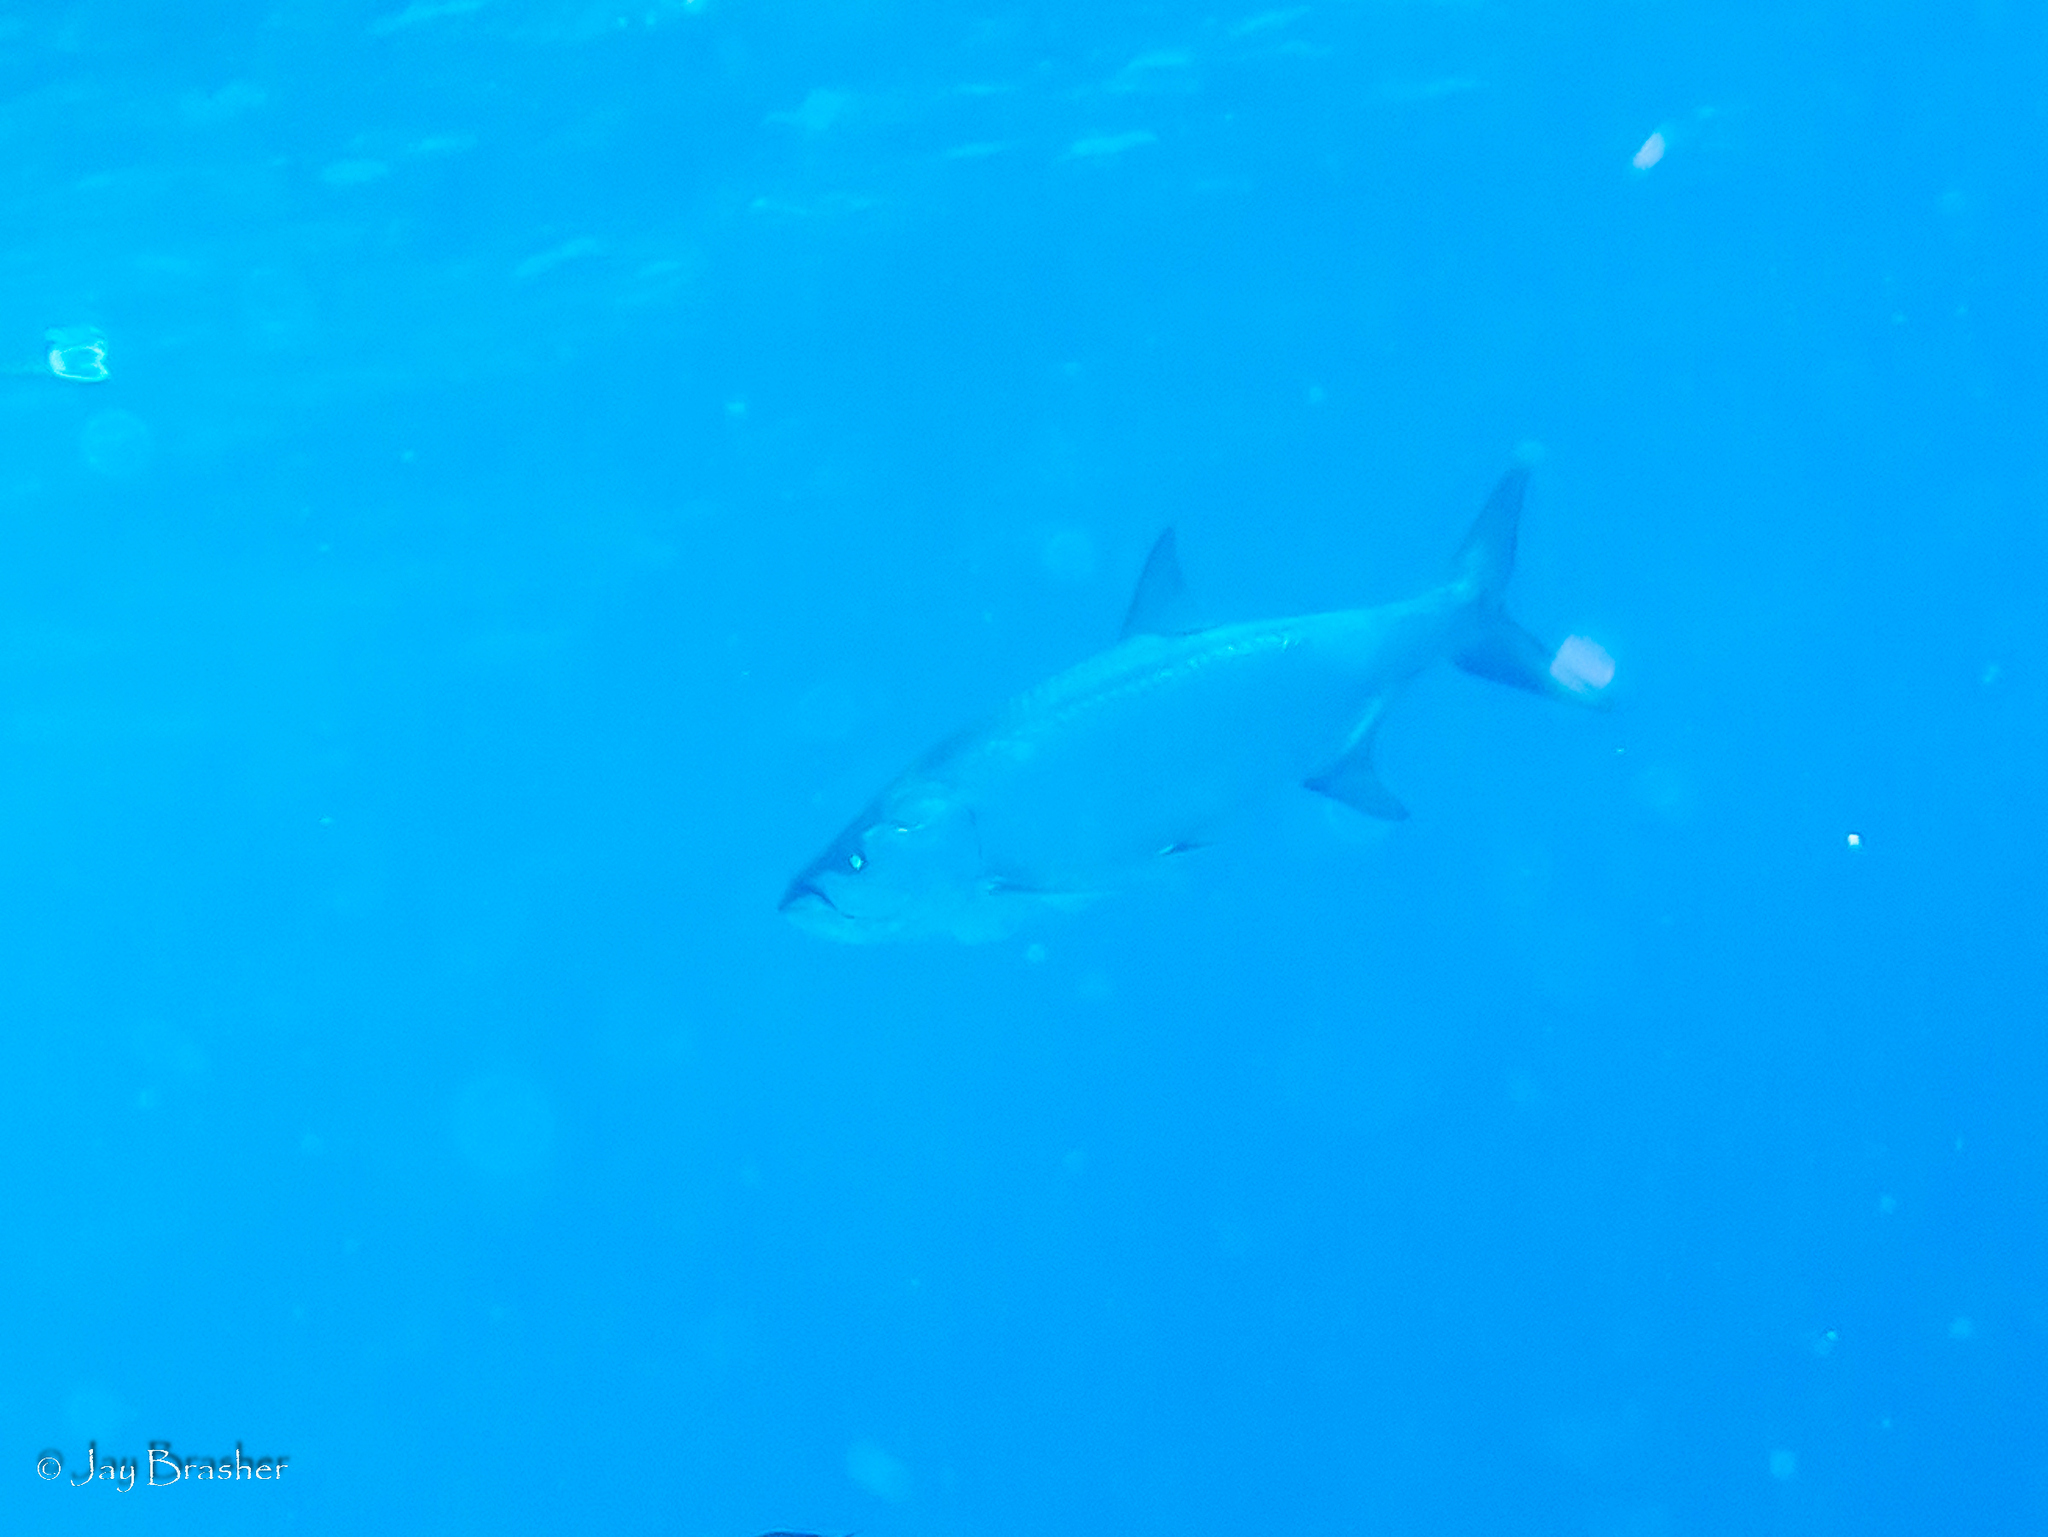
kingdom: Animalia
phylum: Chordata
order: Elopiformes
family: Megalopidae
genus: Megalops
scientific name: Megalops atlanticus
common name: Tarpon
